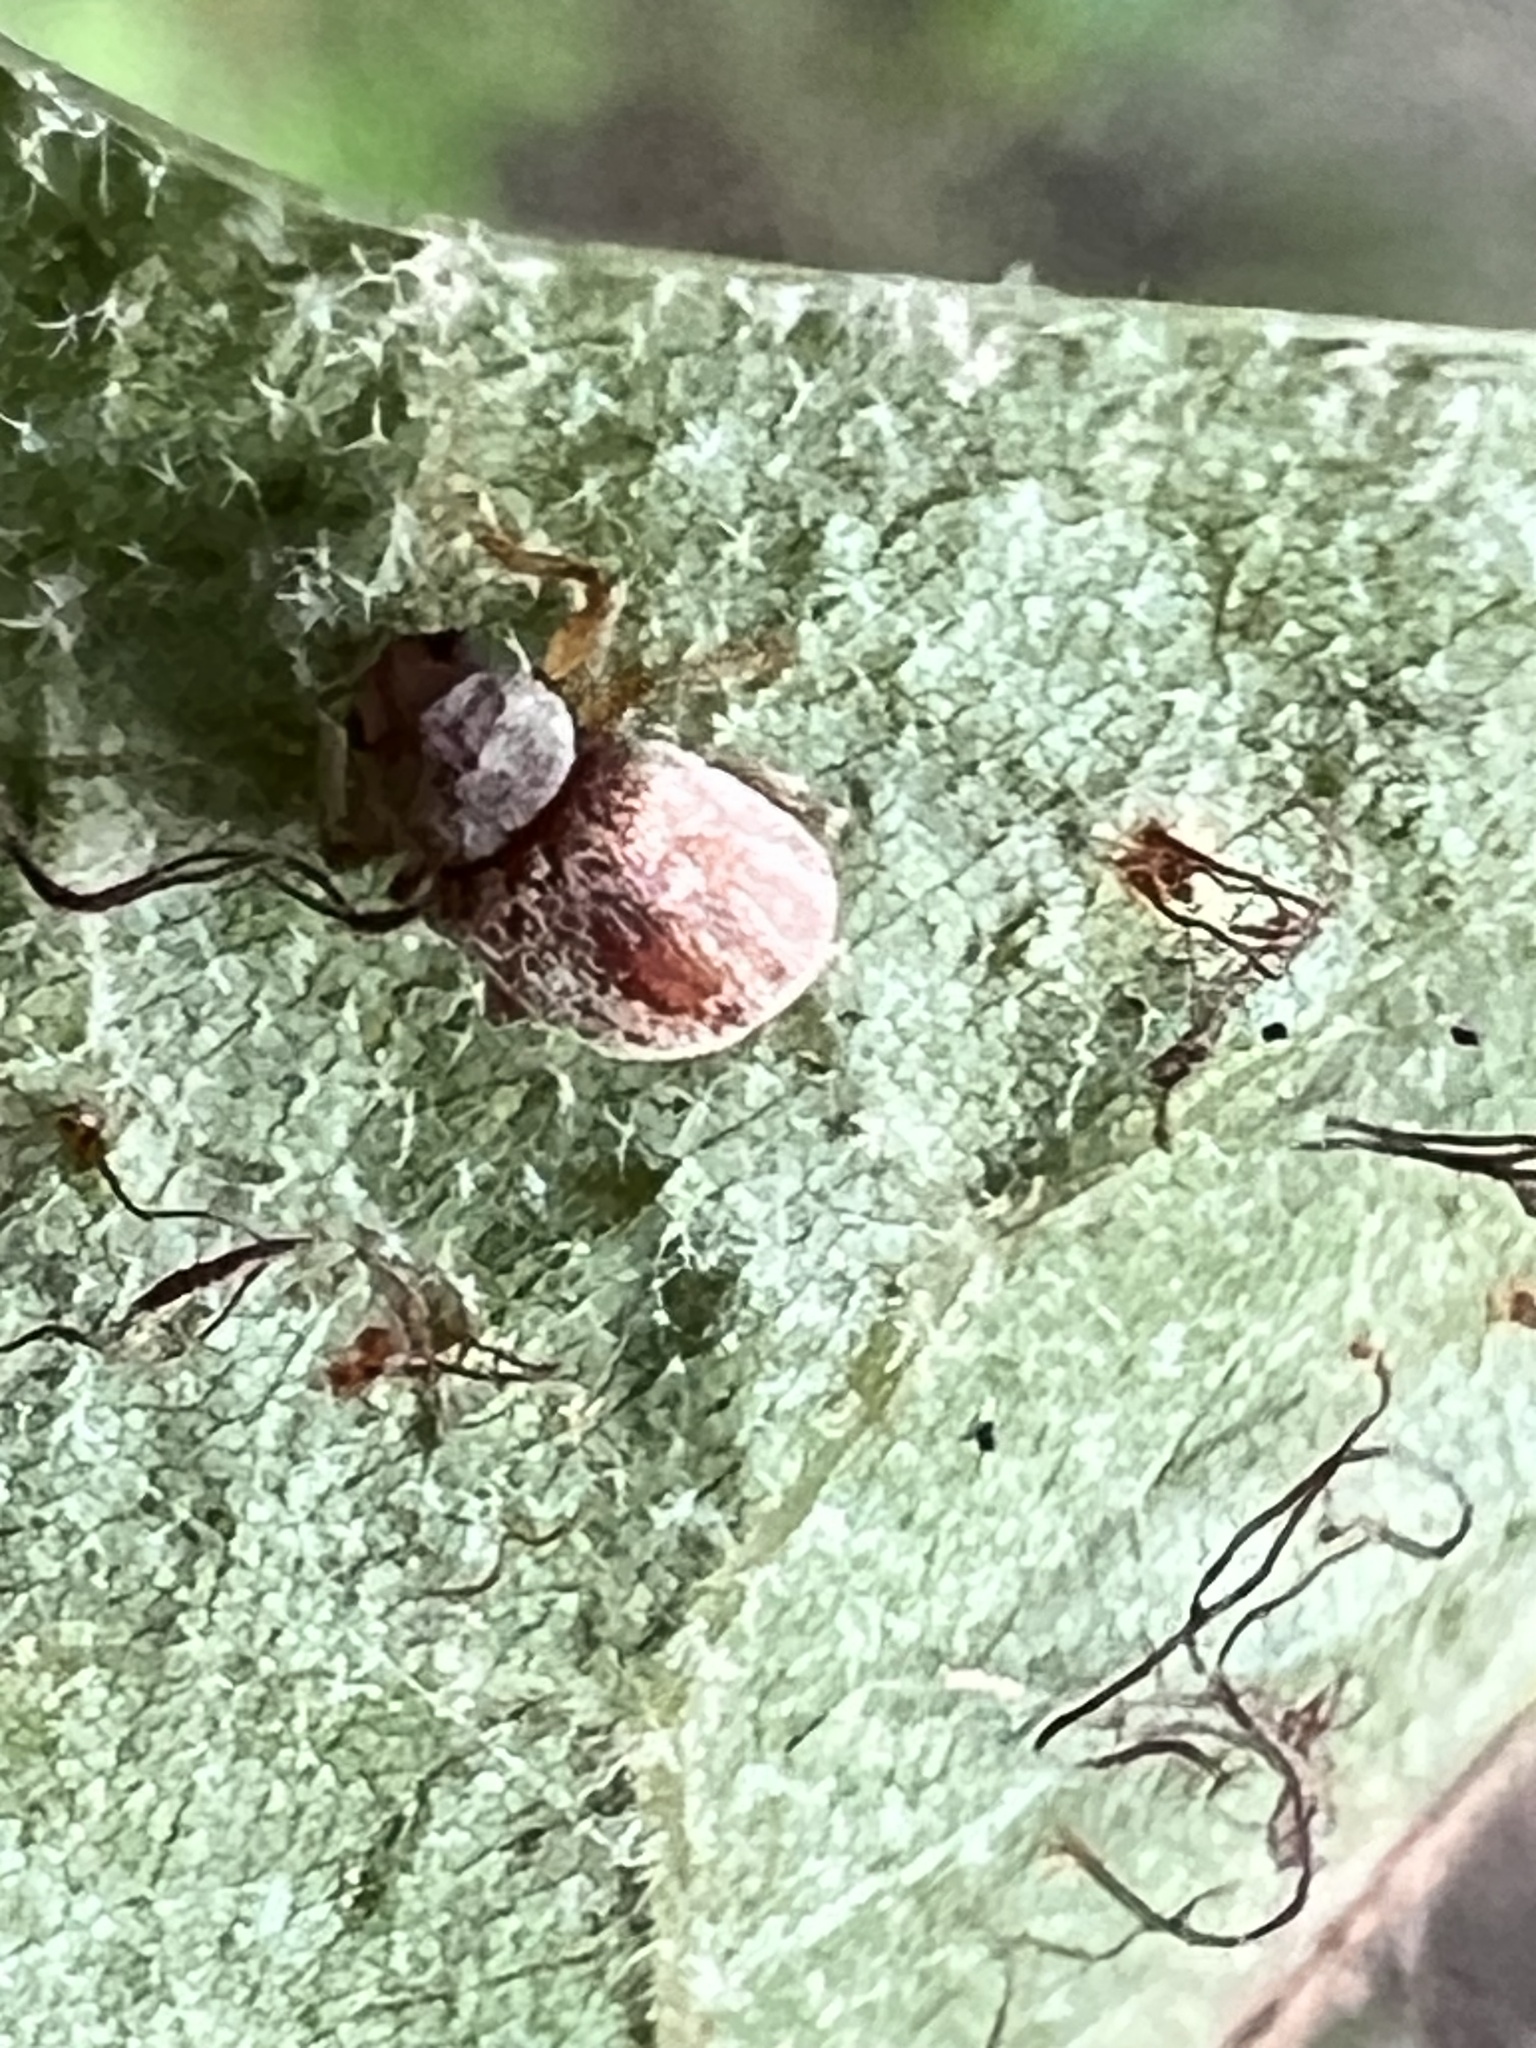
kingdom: Animalia
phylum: Arthropoda
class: Insecta
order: Coleoptera
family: Chrysomelidae
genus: Demotina
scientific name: Demotina modesta
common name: Leaf beetle
